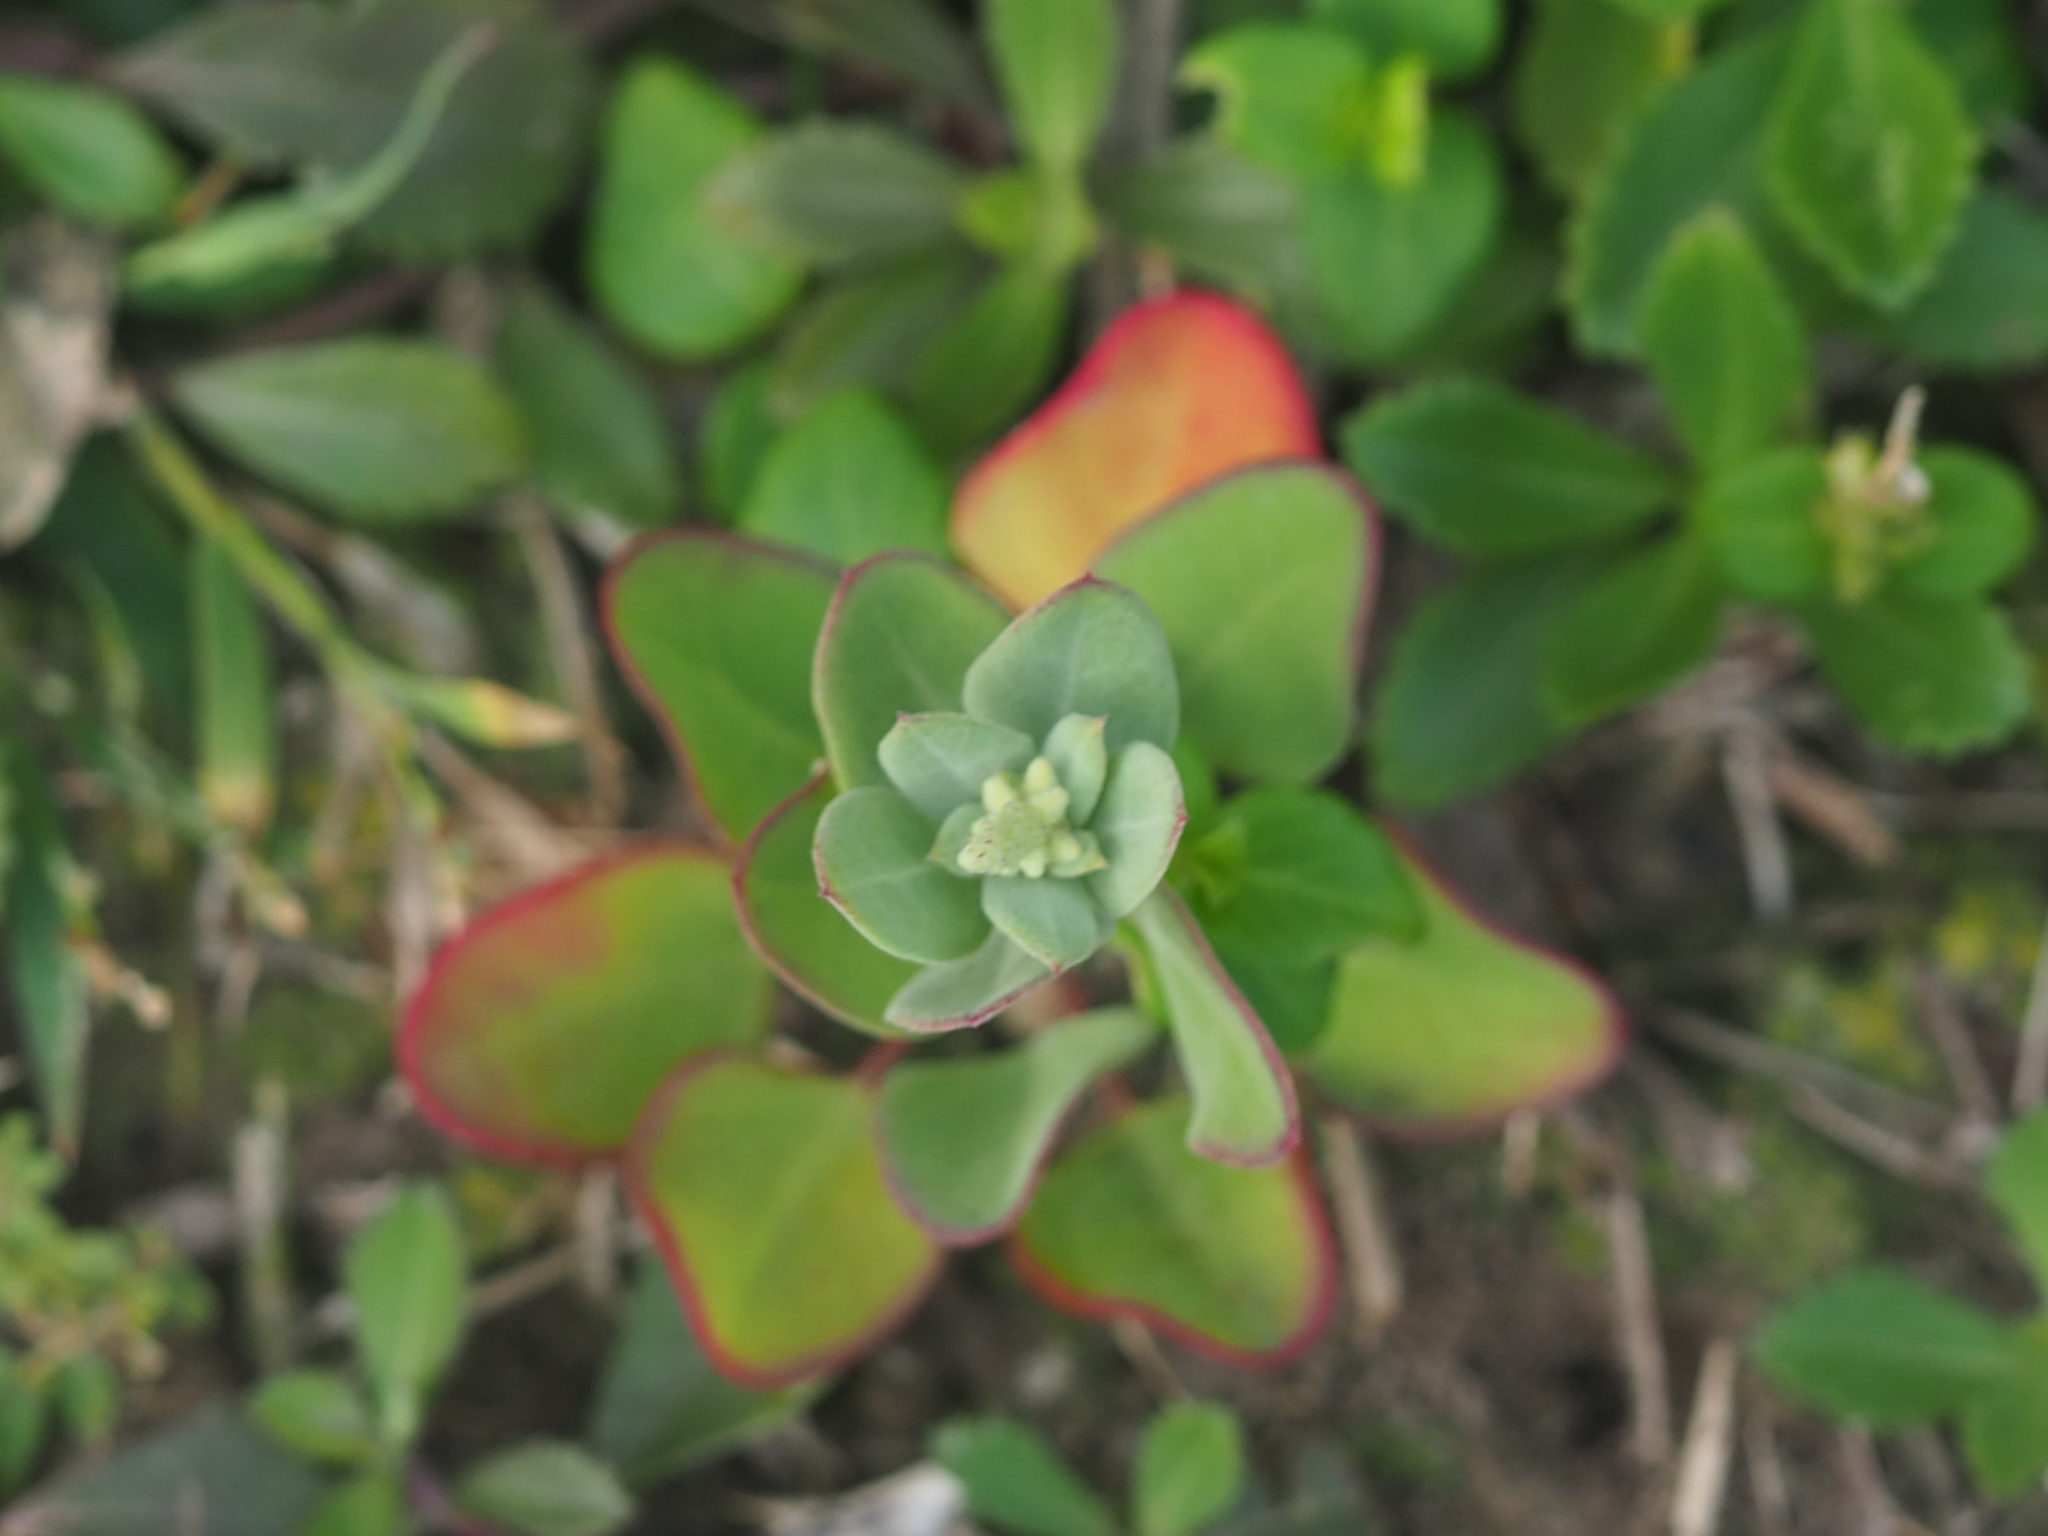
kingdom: Plantae
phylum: Tracheophyta
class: Magnoliopsida
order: Caryophyllales
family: Amaranthaceae
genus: Chenopodium
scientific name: Chenopodium acuminatum
